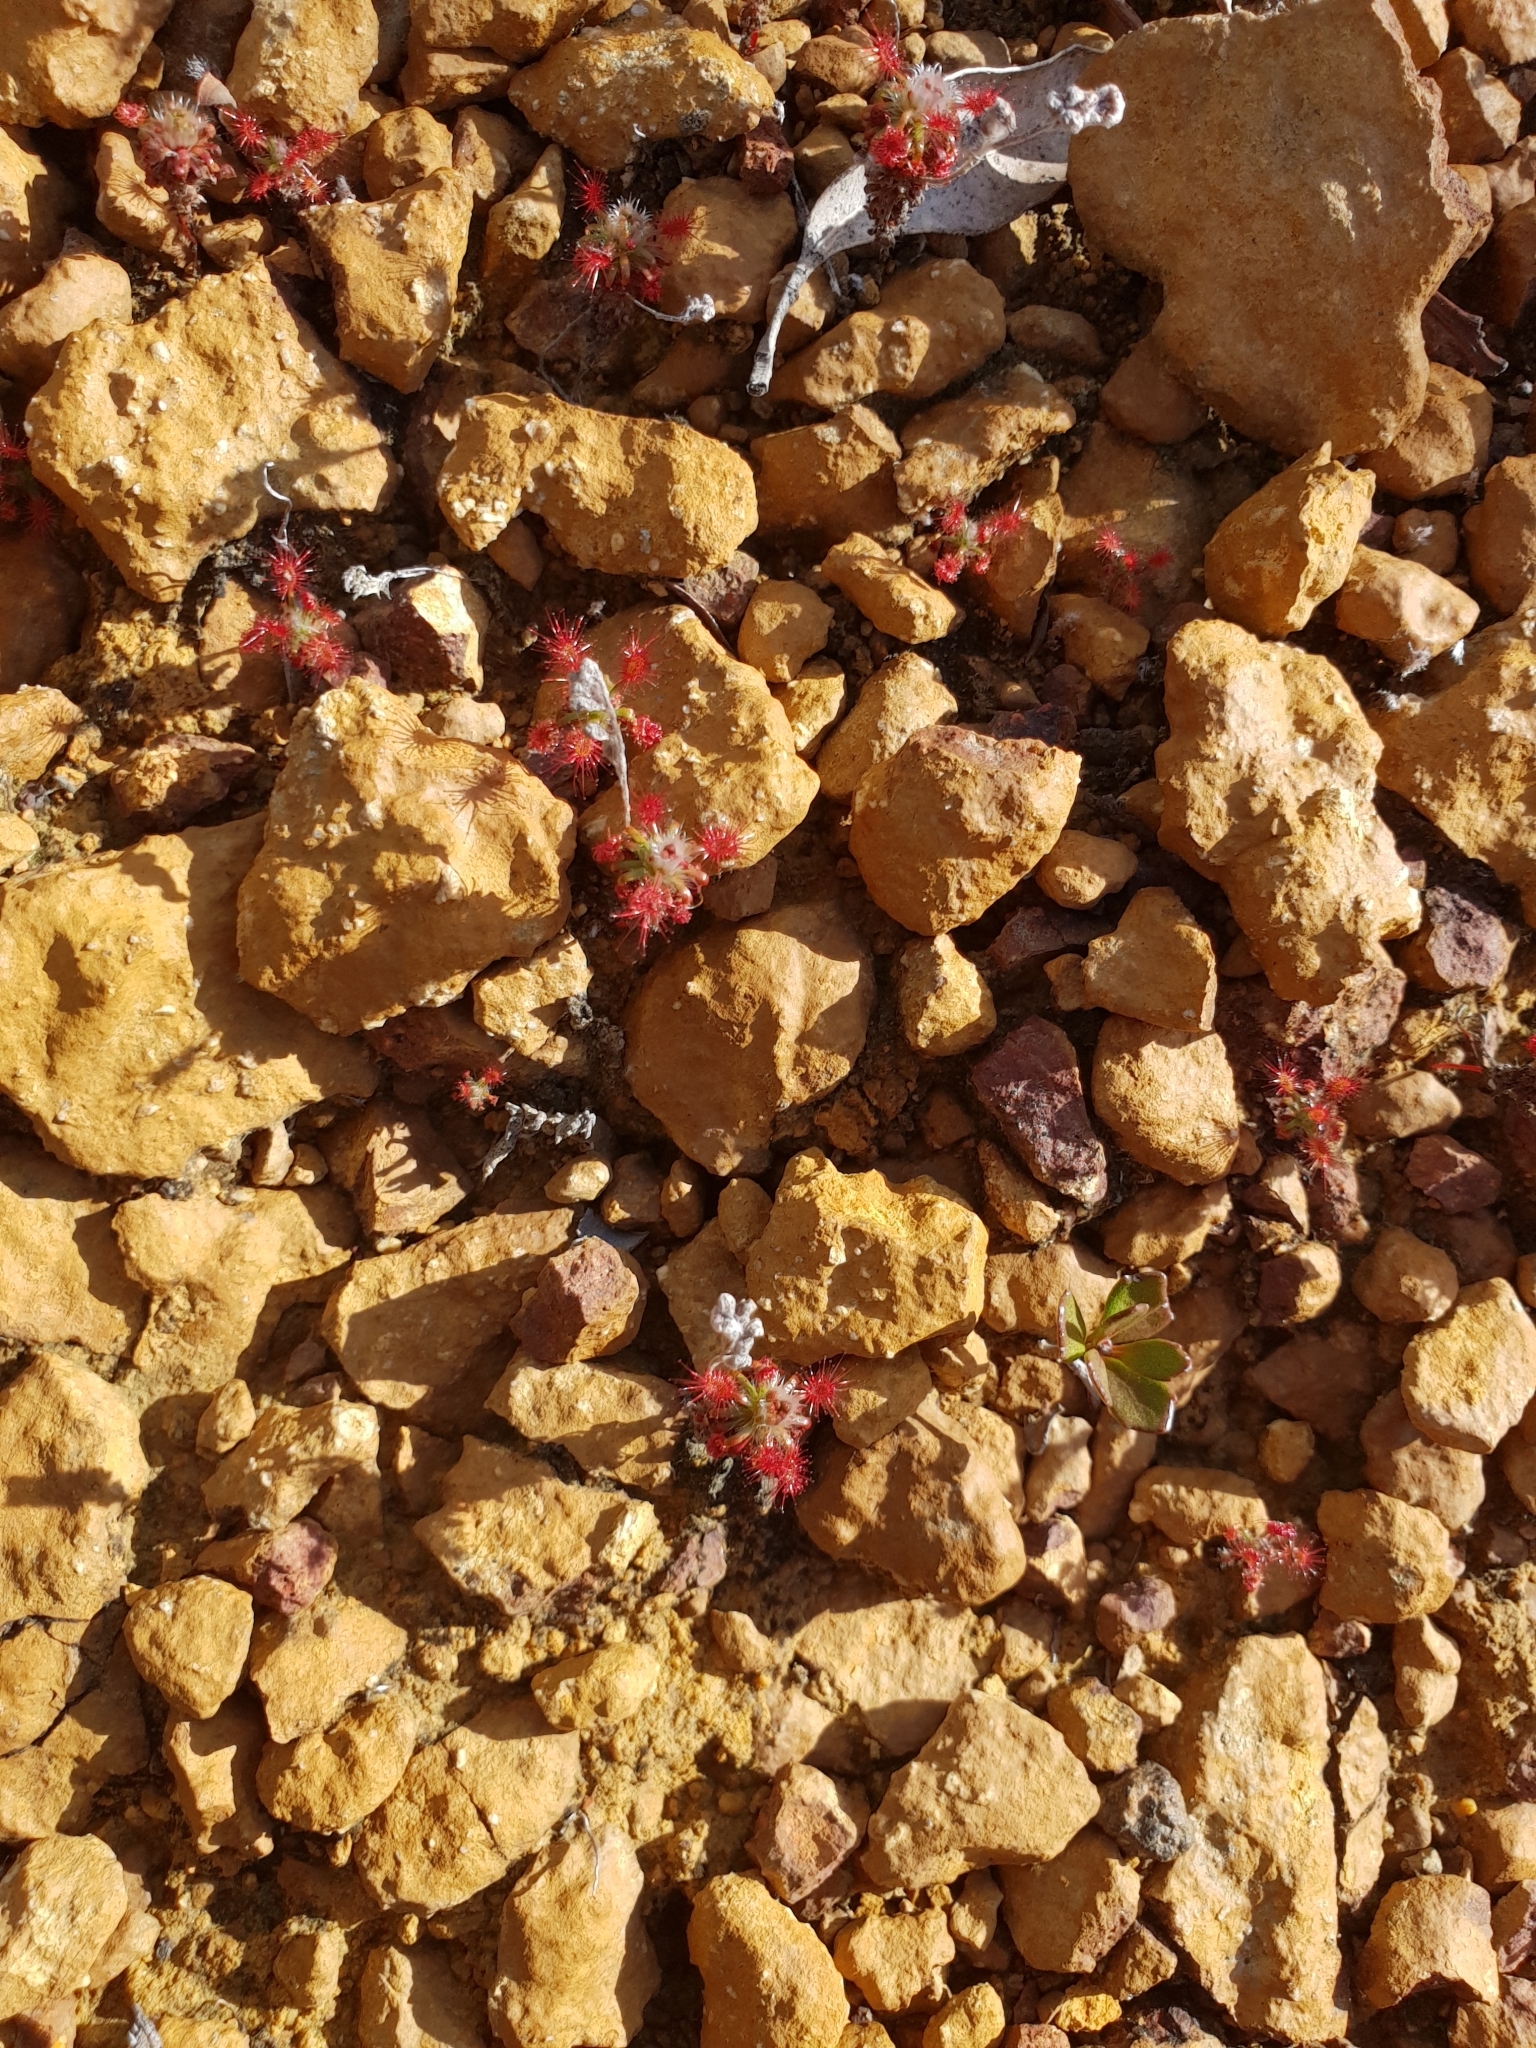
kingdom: Plantae
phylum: Tracheophyta
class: Magnoliopsida
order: Caryophyllales
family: Droseraceae
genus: Drosera
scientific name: Drosera lasiantha
